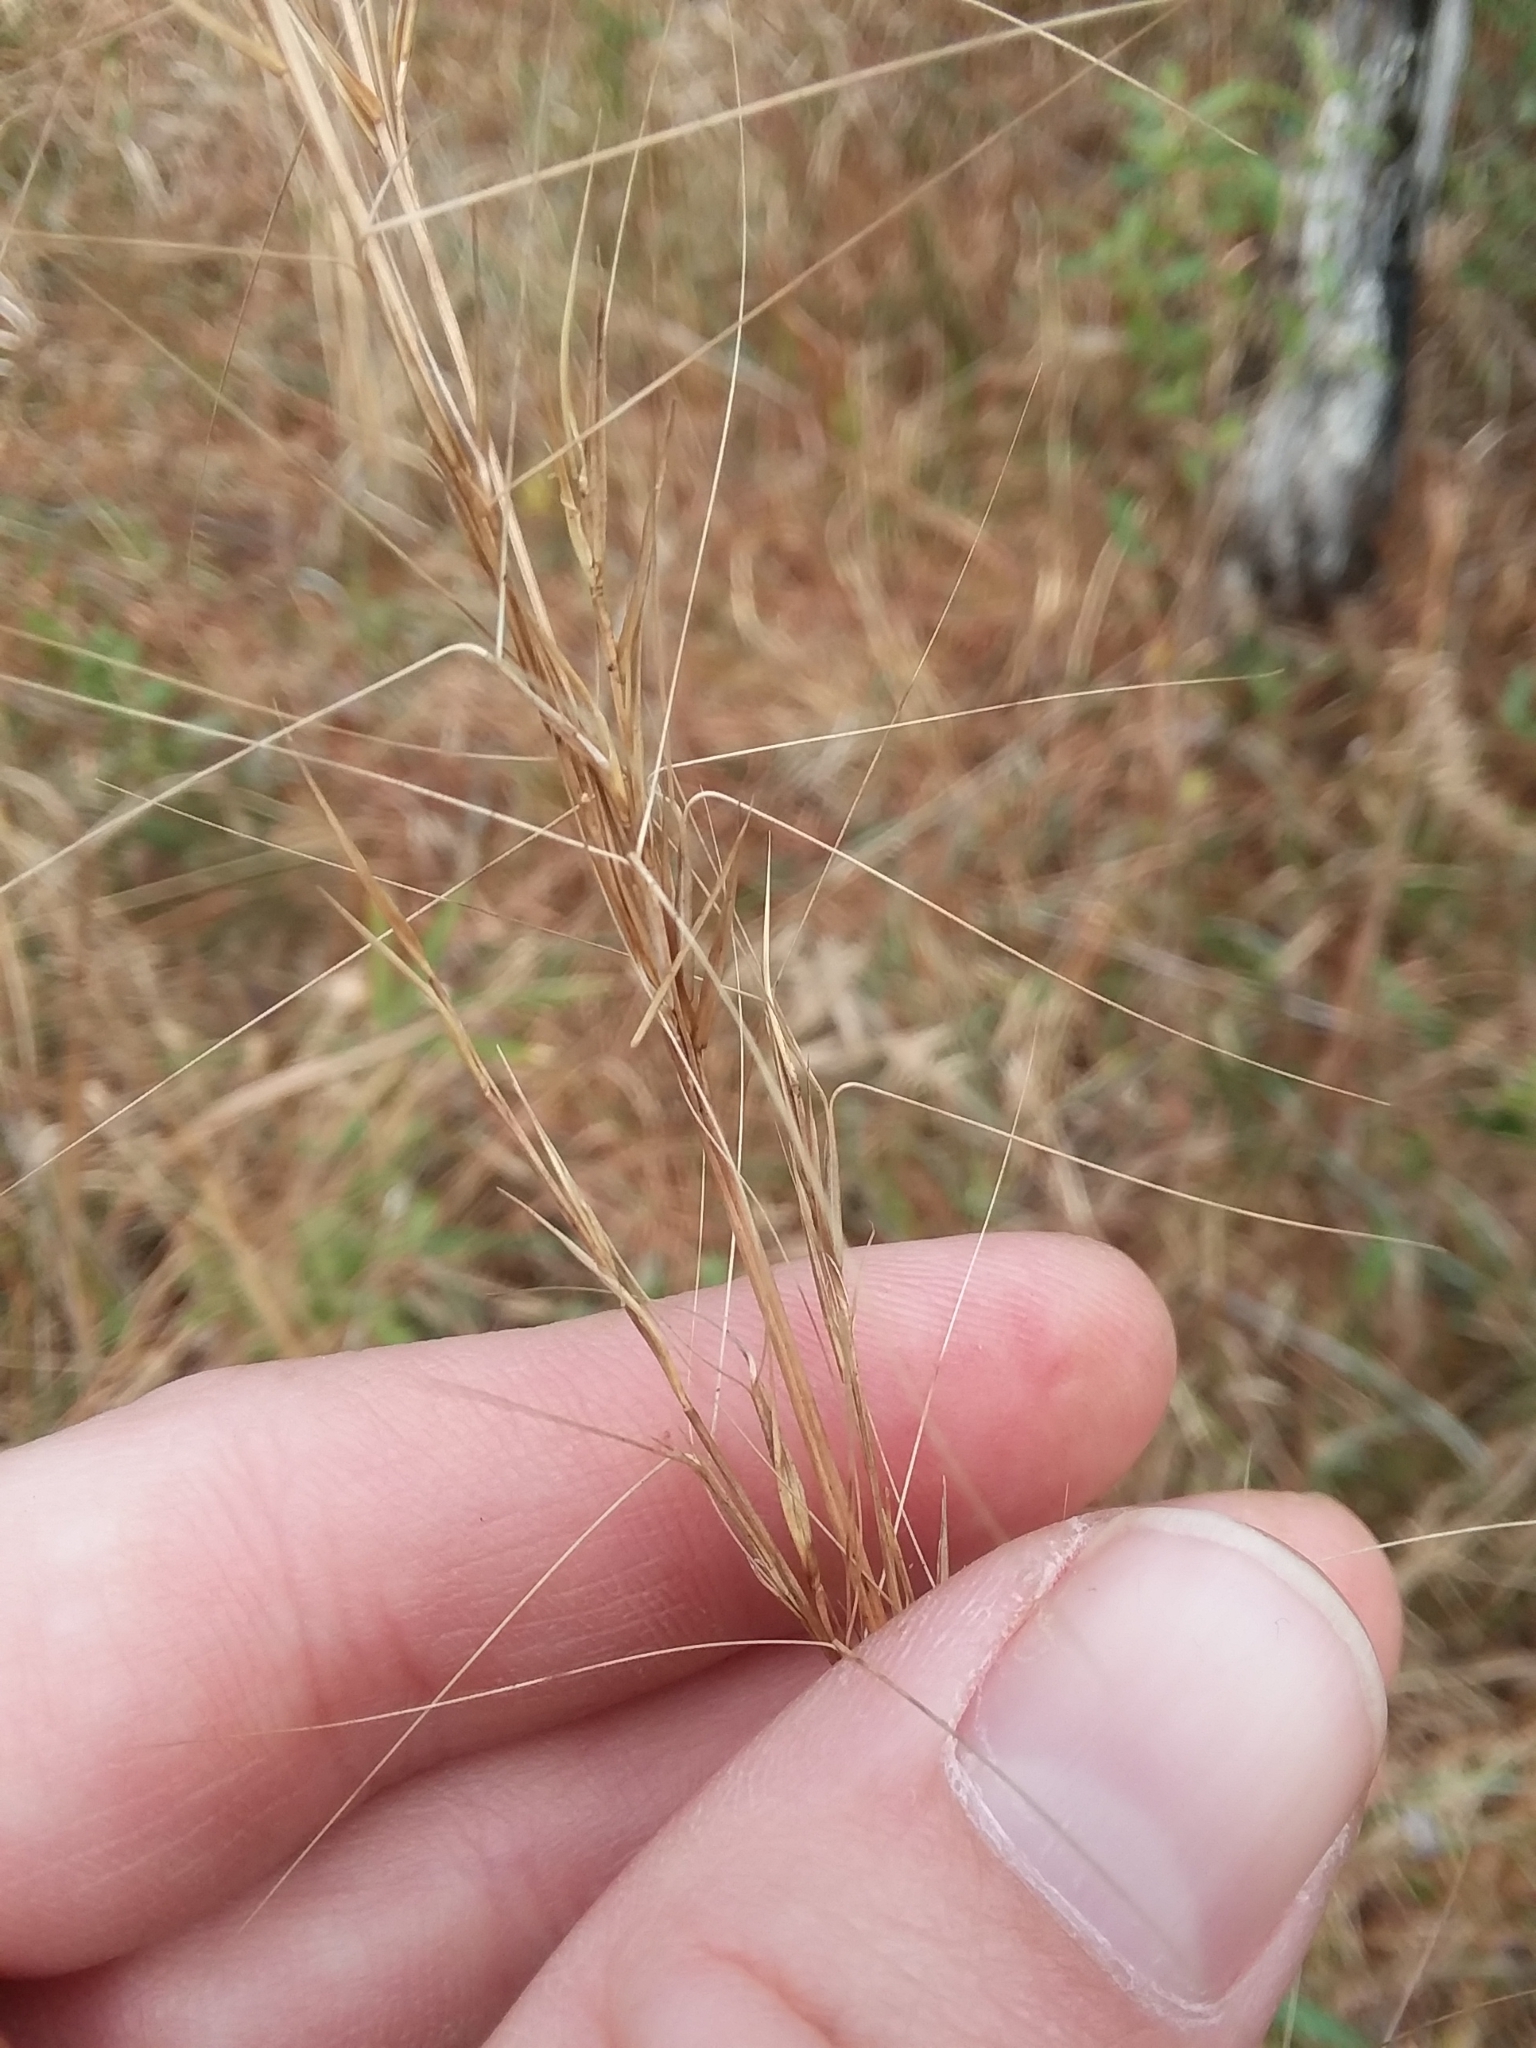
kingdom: Plantae
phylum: Tracheophyta
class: Liliopsida
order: Poales
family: Poaceae
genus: Aristida
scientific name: Aristida palustris
